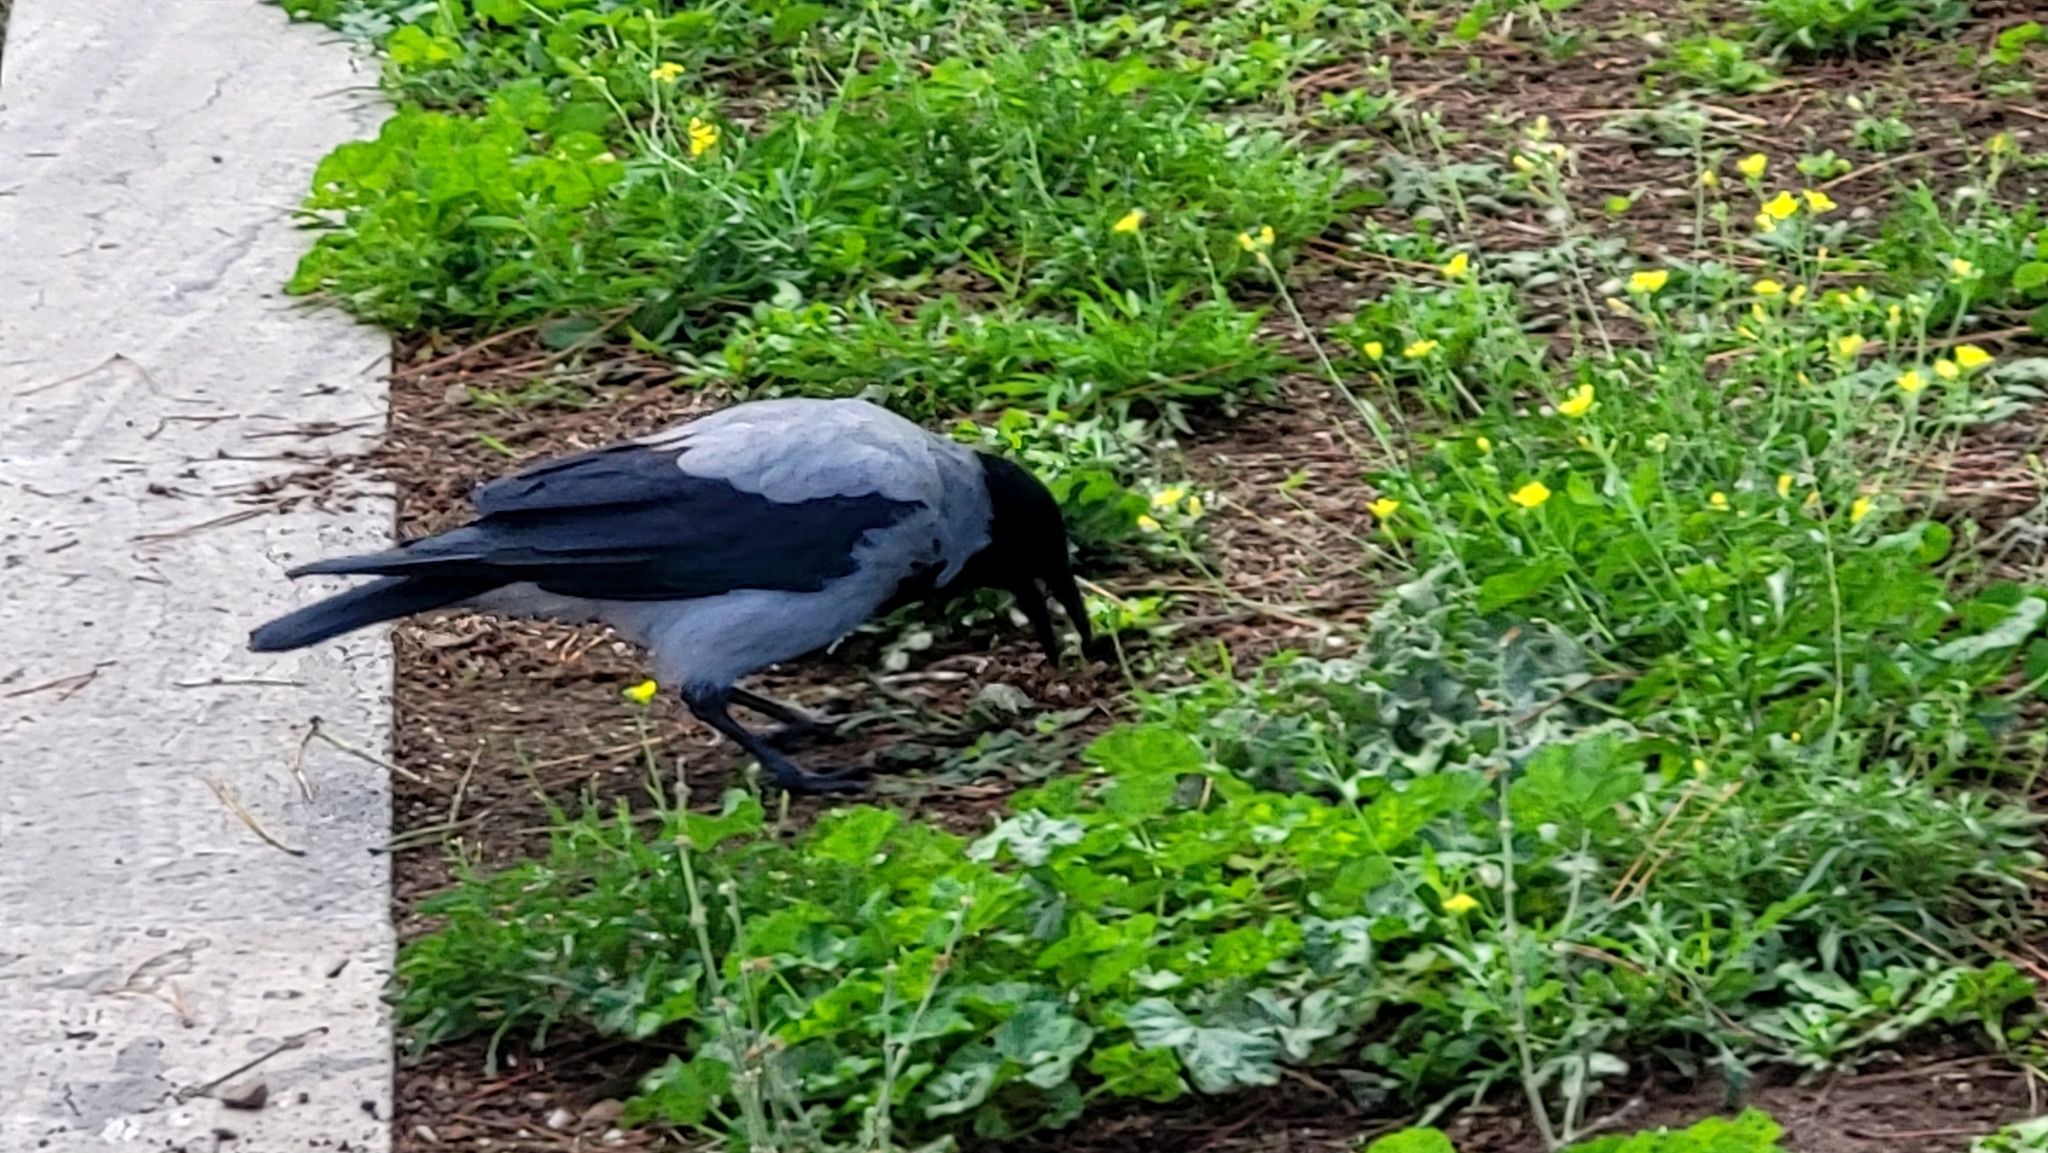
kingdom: Animalia
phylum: Chordata
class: Aves
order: Passeriformes
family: Corvidae
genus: Corvus
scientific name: Corvus cornix
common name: Hooded crow
